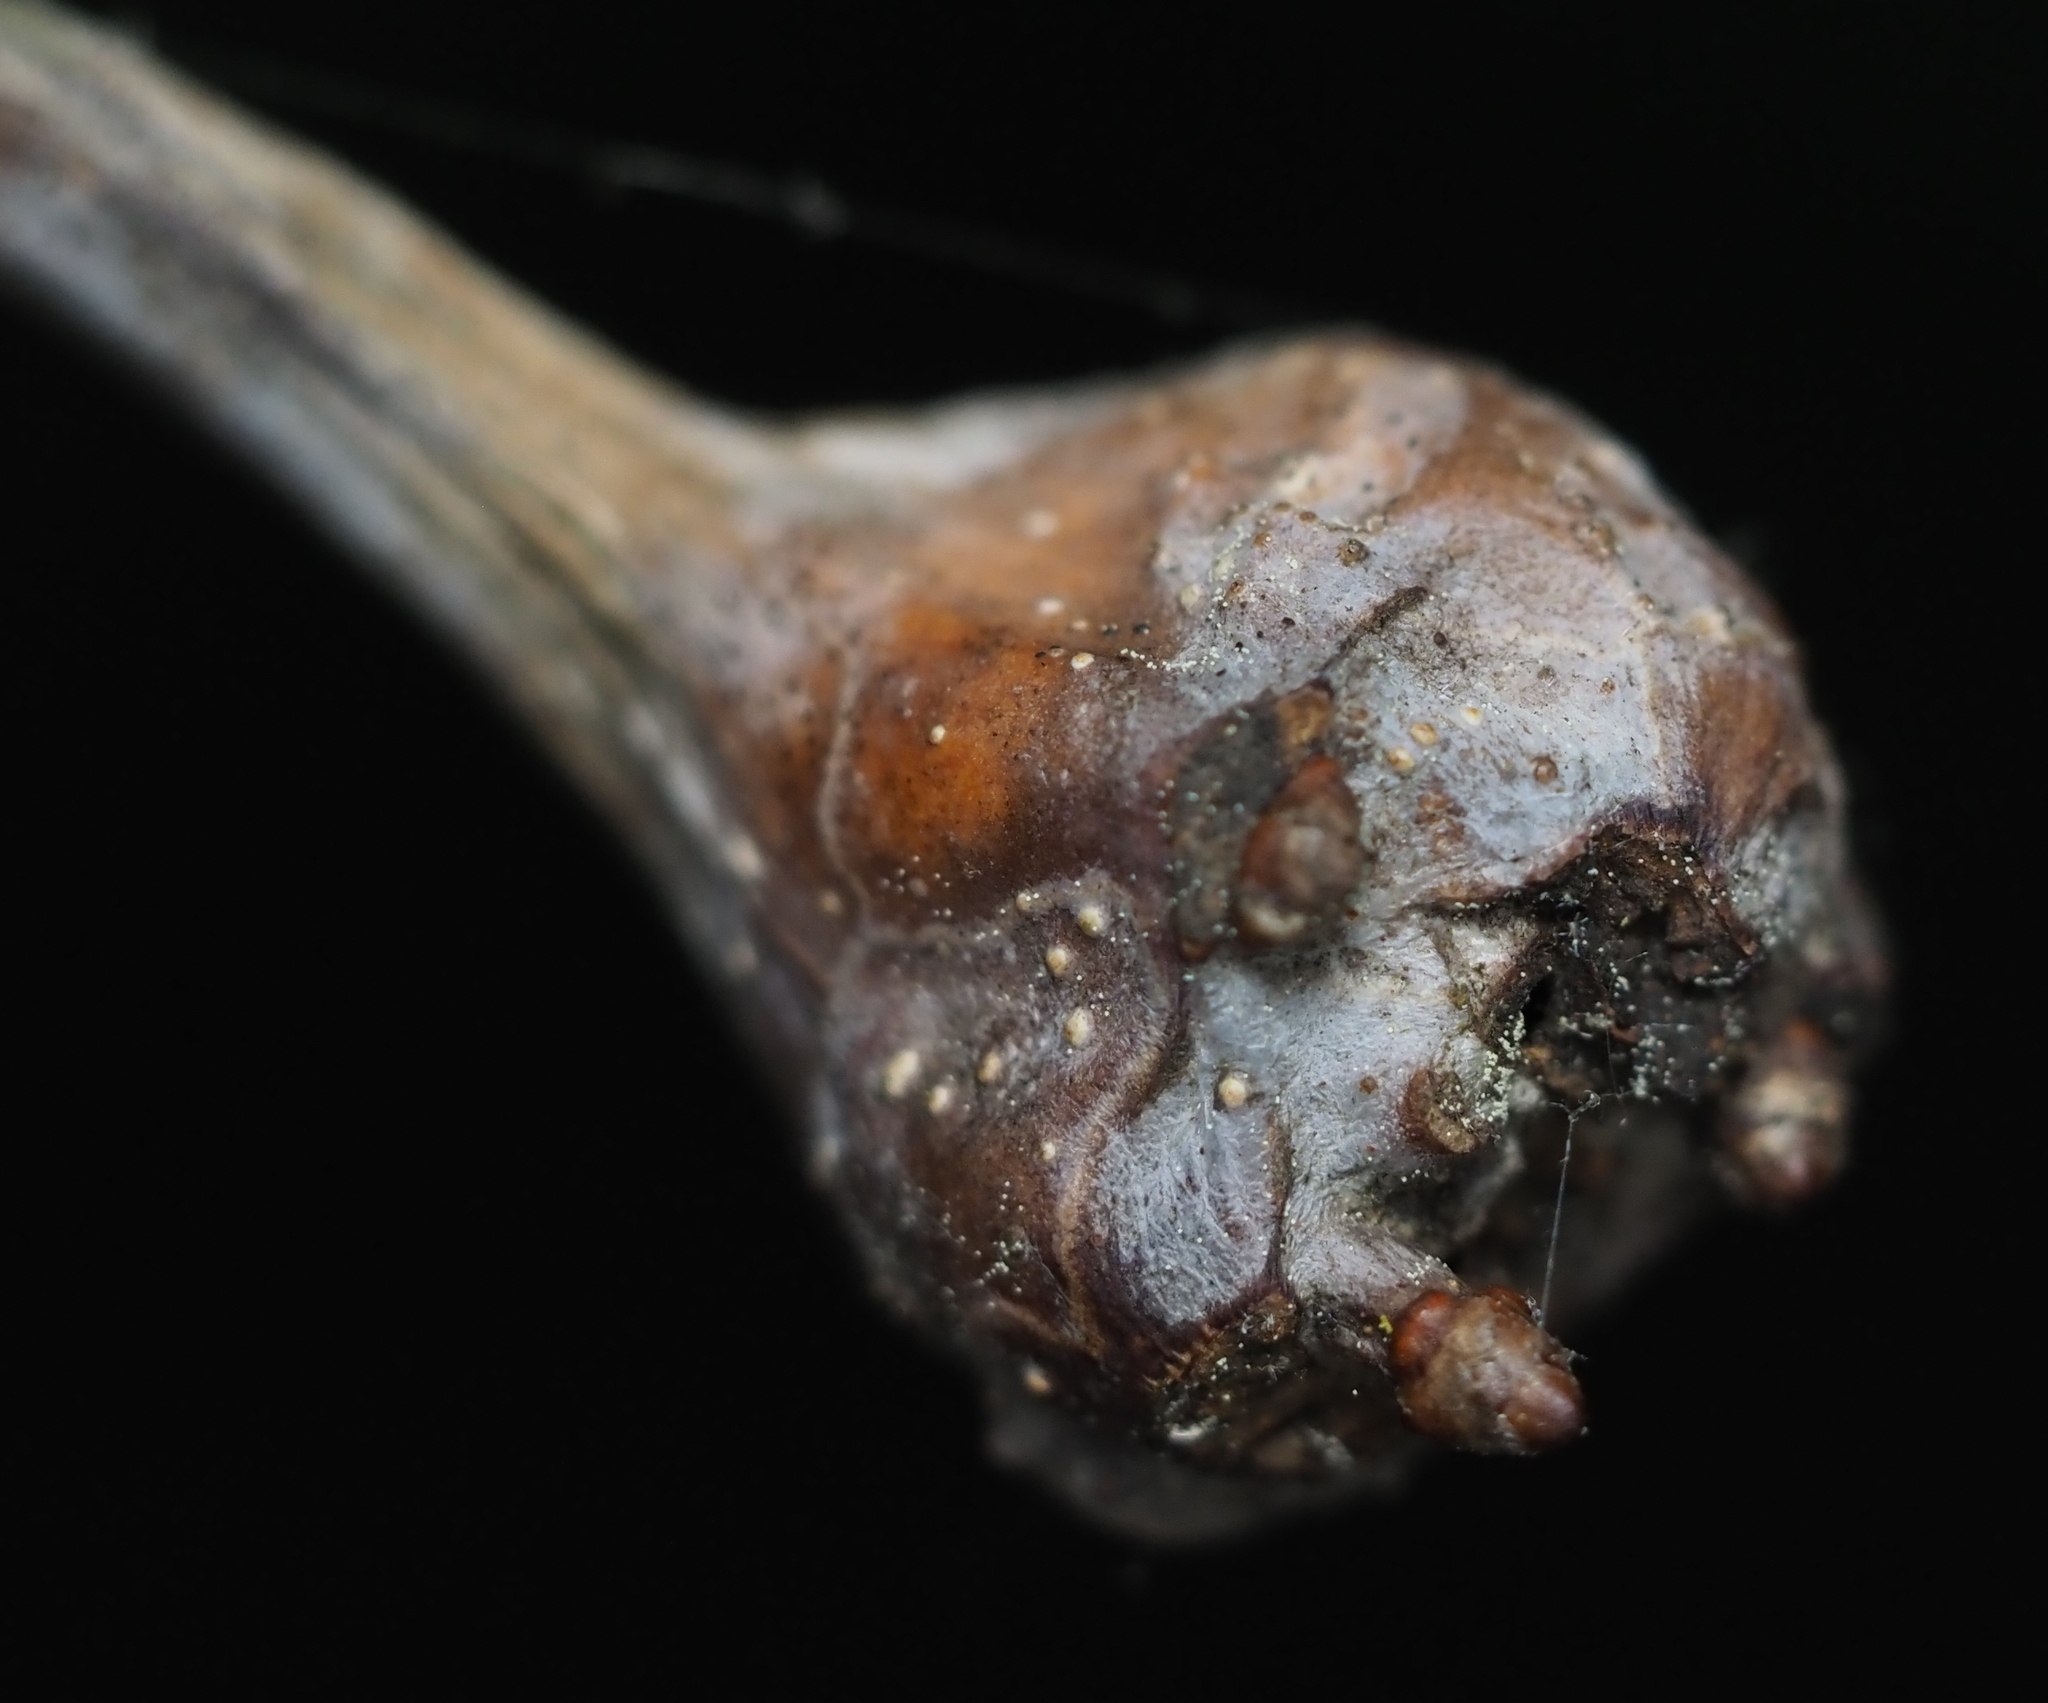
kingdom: Animalia
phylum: Arthropoda
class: Insecta
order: Hymenoptera
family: Cynipidae
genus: Callirhytis
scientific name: Callirhytis clavula
